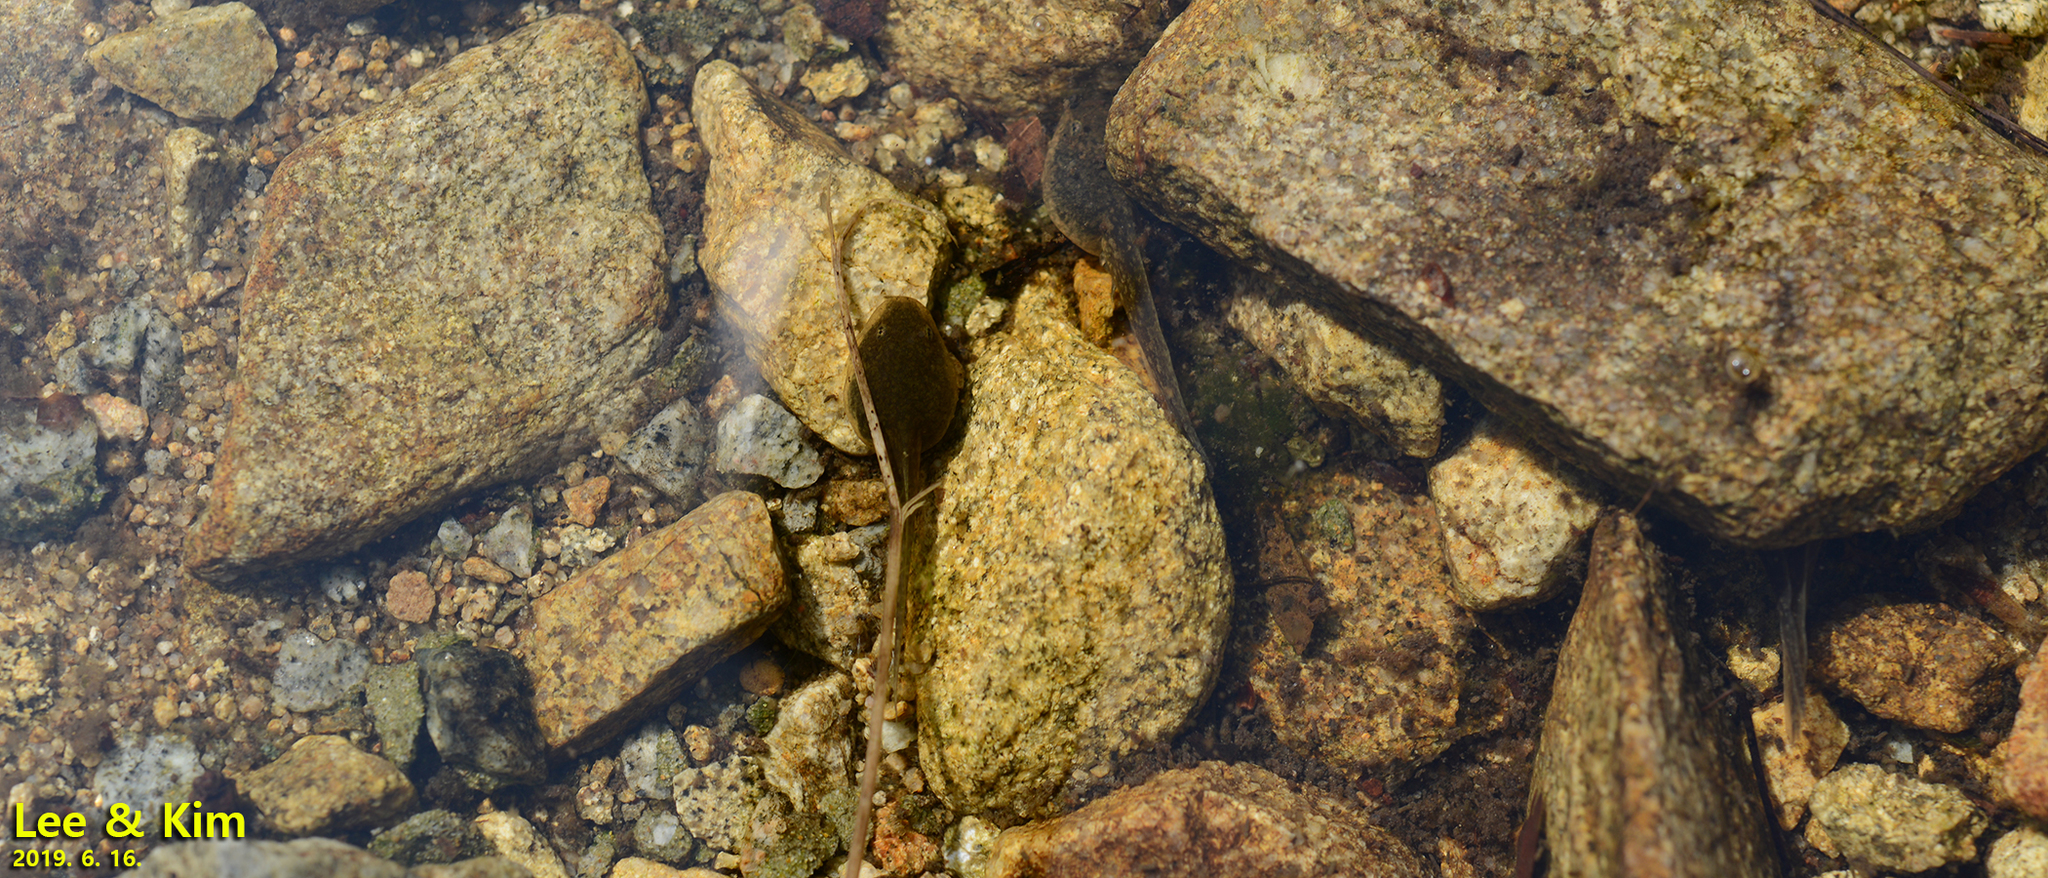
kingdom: Animalia
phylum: Chordata
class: Amphibia
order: Anura
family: Ranidae
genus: Rana
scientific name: Rana huanrenensis
